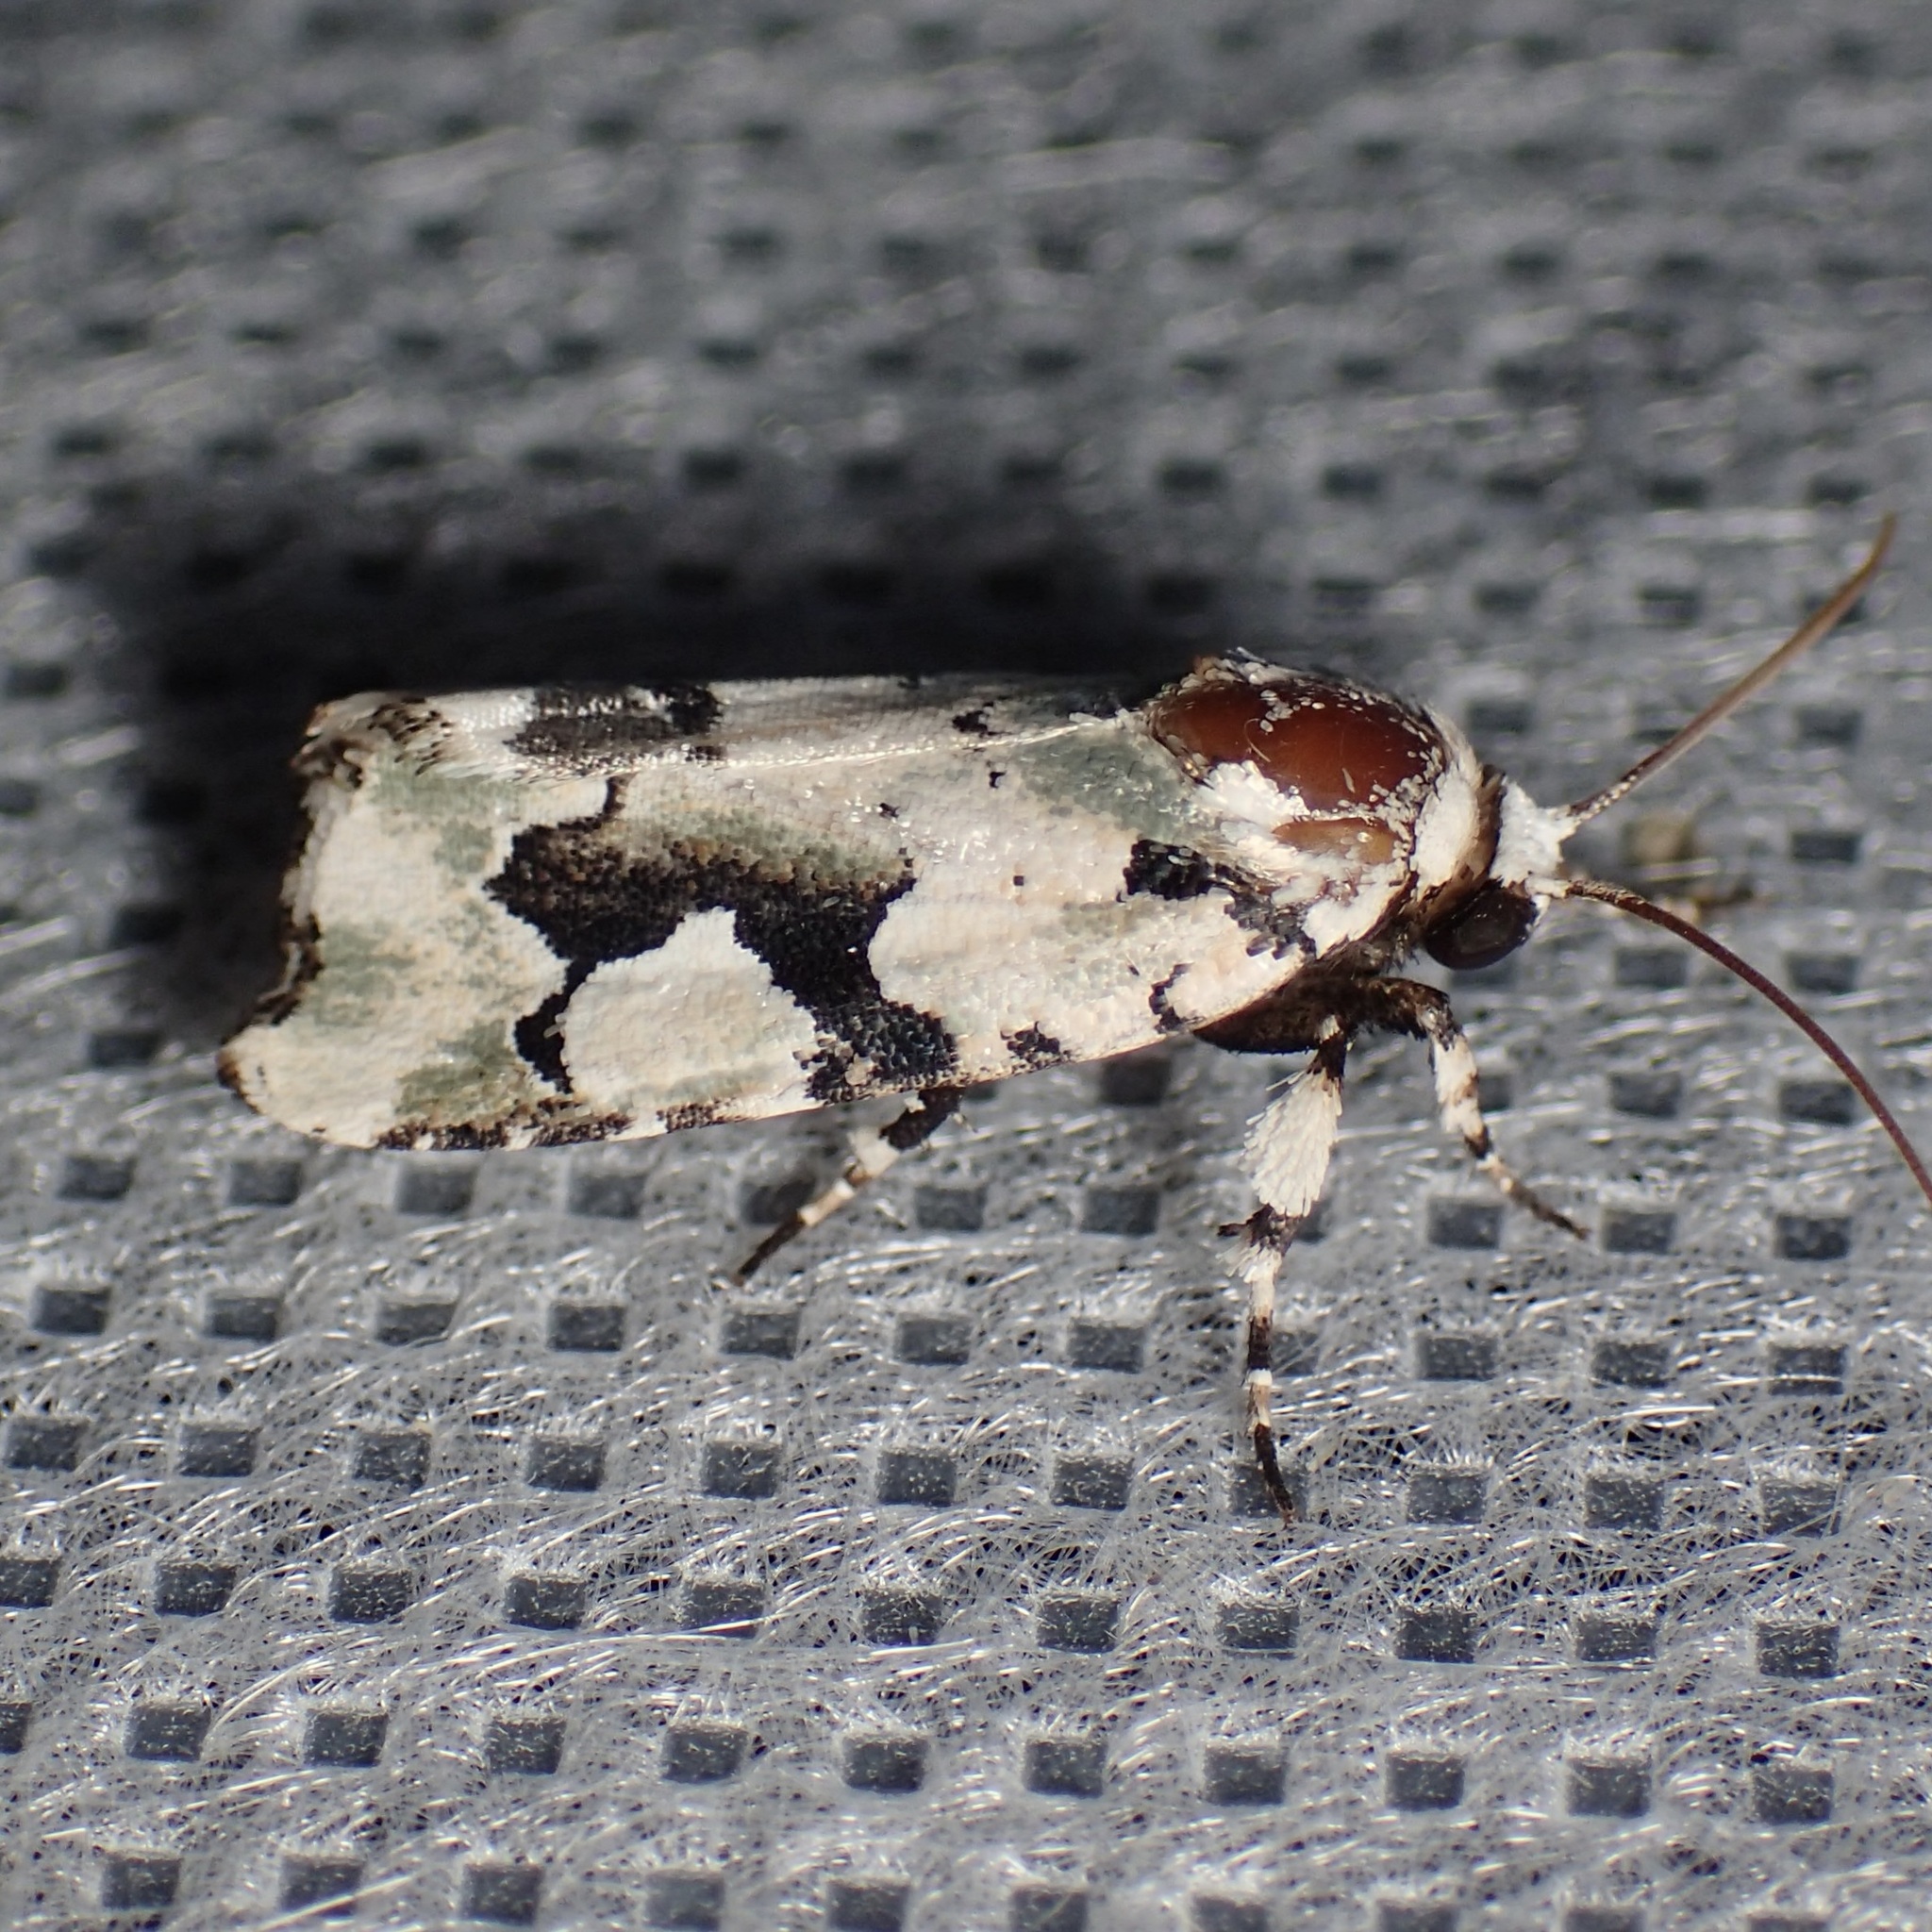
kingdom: Animalia
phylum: Arthropoda
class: Insecta
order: Lepidoptera
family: Noctuidae
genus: Emarginea
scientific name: Emarginea percara
